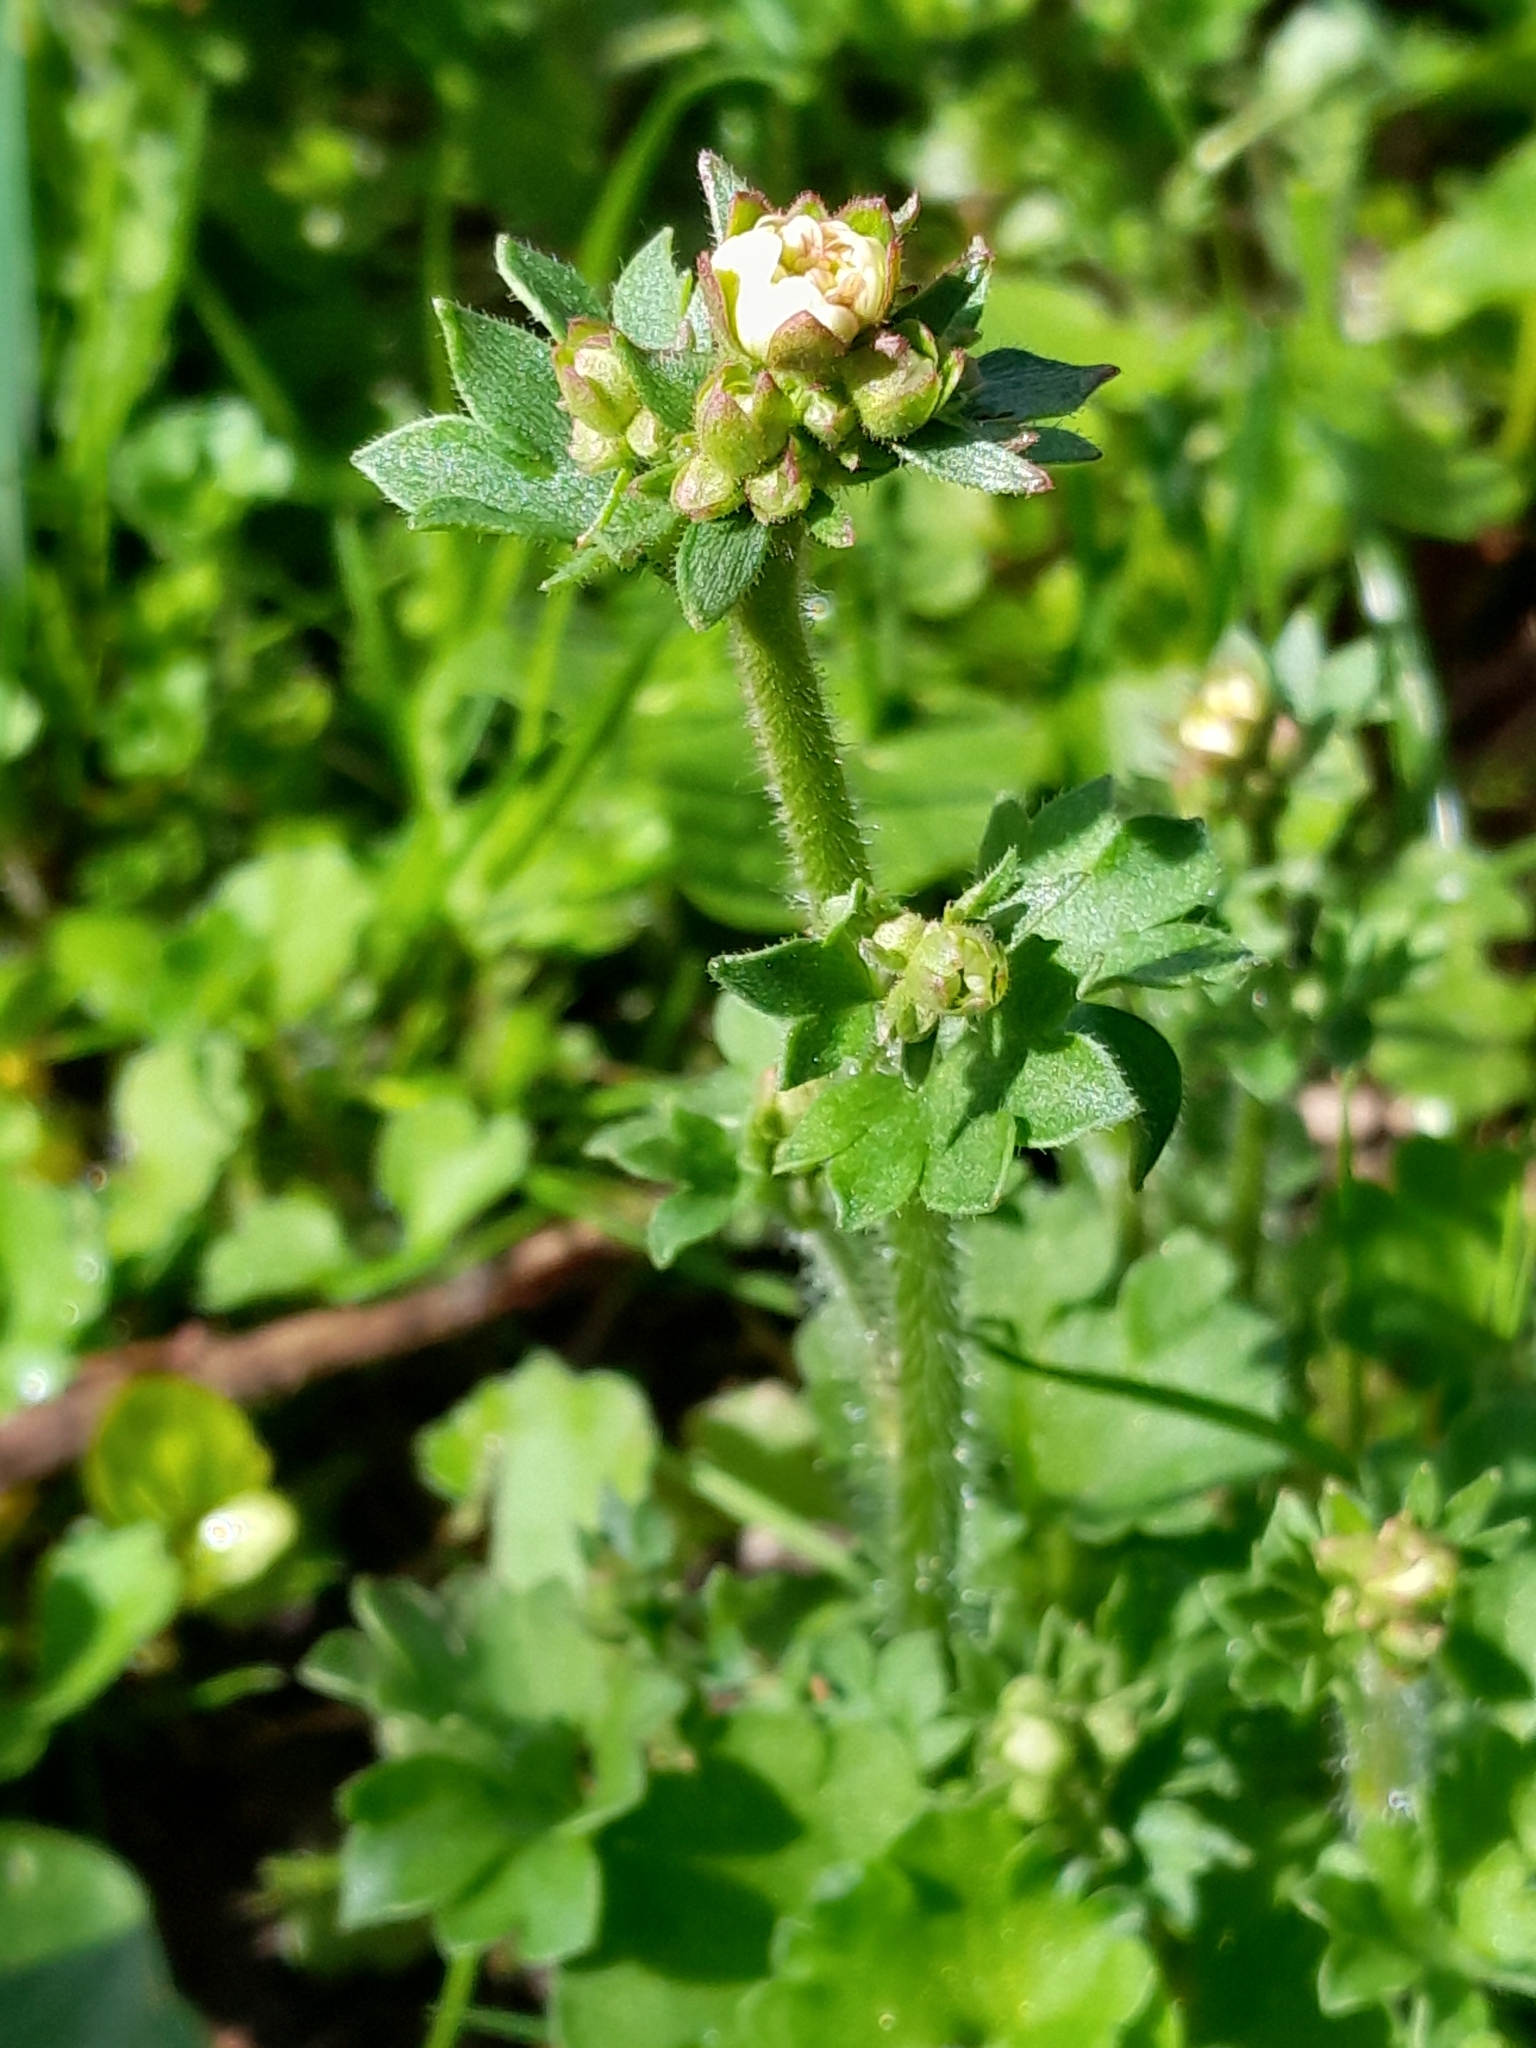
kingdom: Plantae
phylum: Tracheophyta
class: Magnoliopsida
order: Saxifragales
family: Saxifragaceae
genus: Saxifraga
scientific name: Saxifraga granulata
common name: Meadow saxifrage
